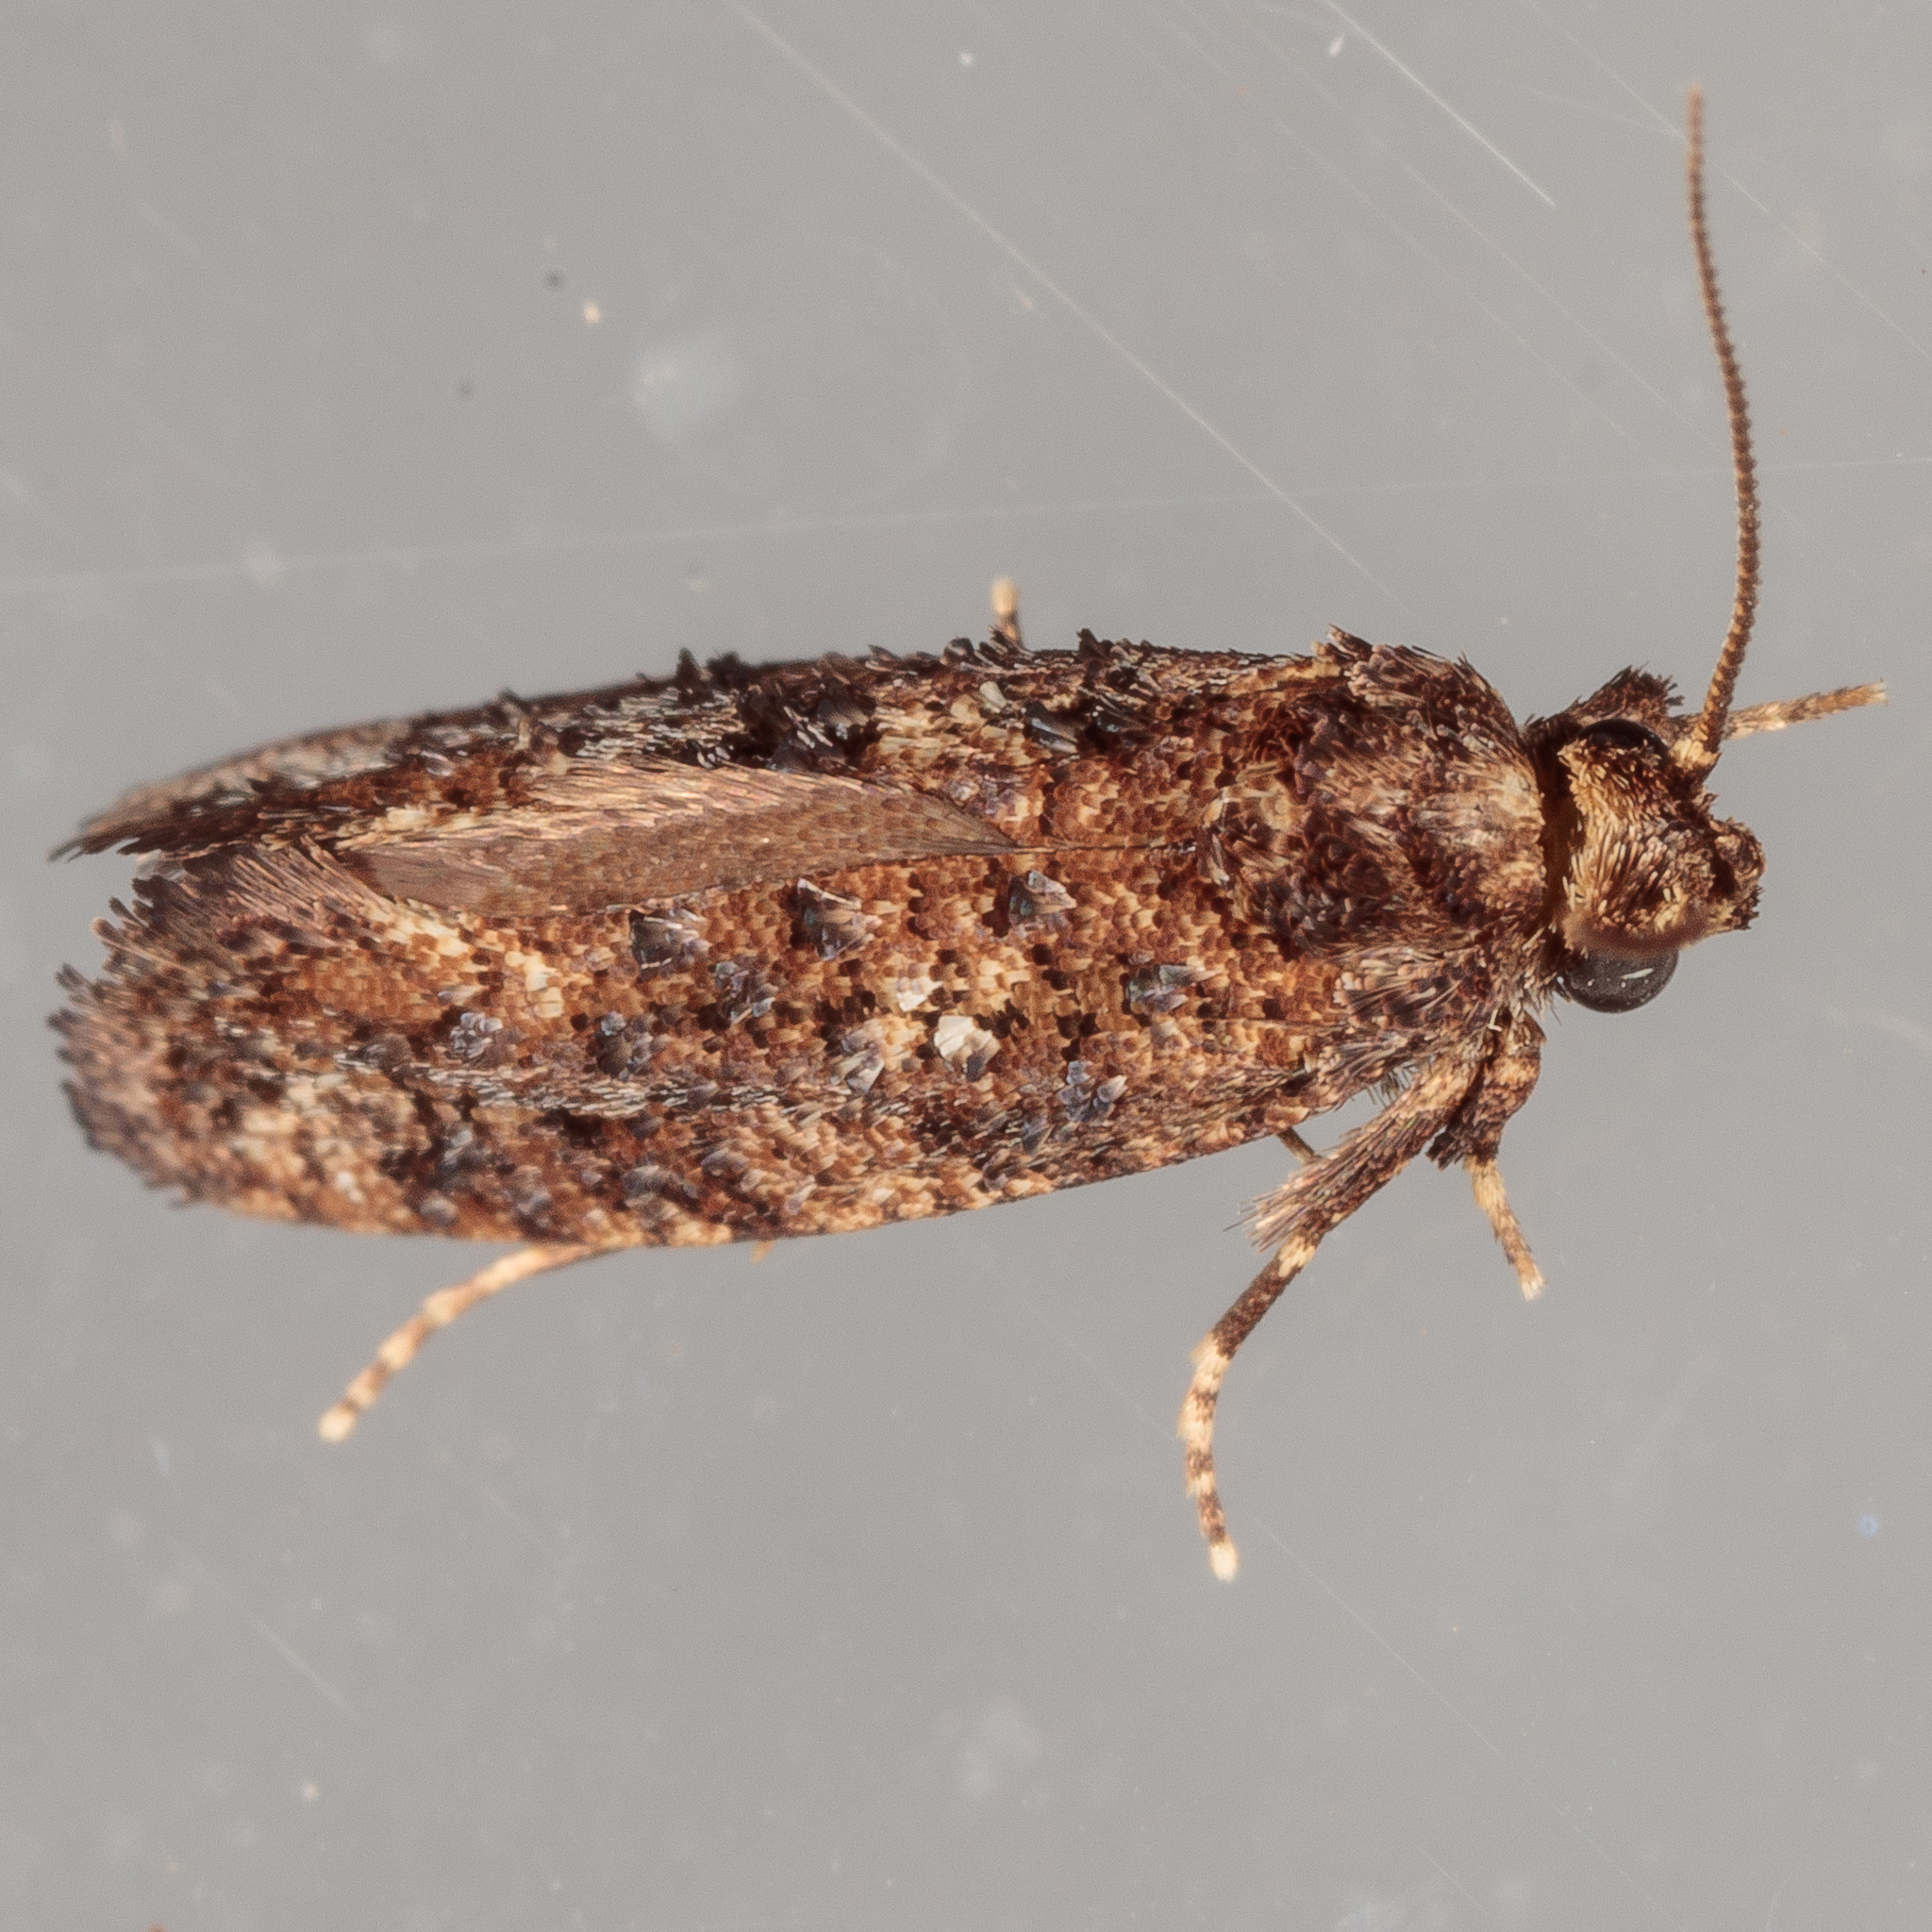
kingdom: Animalia
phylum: Arthropoda
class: Insecta
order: Lepidoptera
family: Tineidae
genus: Acrolophus
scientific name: Acrolophus cressoni
